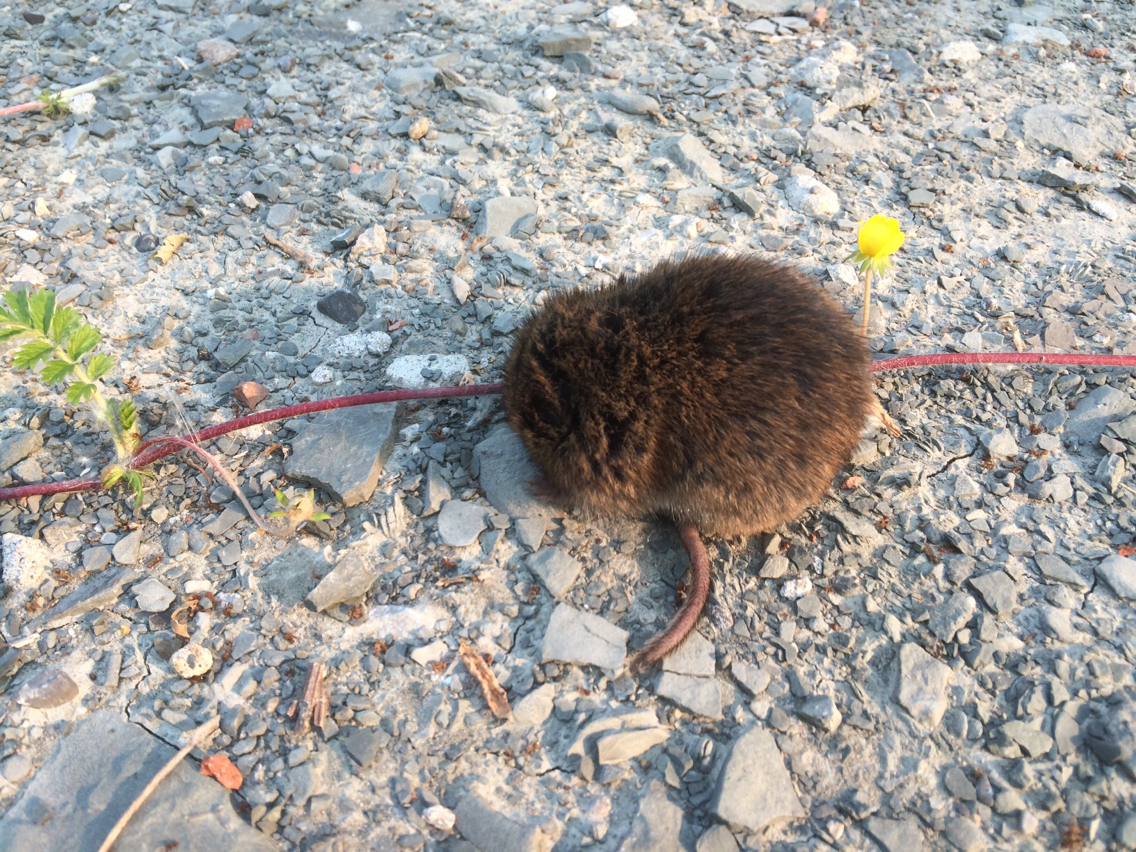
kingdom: Animalia
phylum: Chordata
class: Mammalia
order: Rodentia
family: Cricetidae
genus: Microtus
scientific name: Microtus pennsylvanicus
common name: Meadow vole
